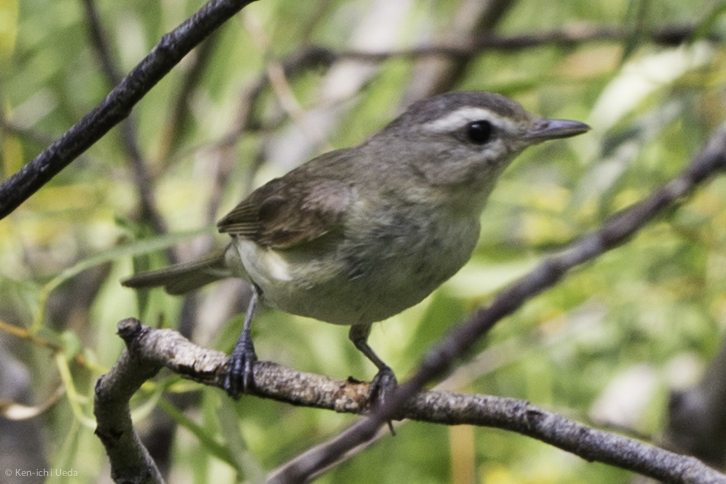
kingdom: Animalia
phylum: Chordata
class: Aves
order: Passeriformes
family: Vireonidae
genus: Vireo
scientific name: Vireo gilvus
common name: Warbling vireo
